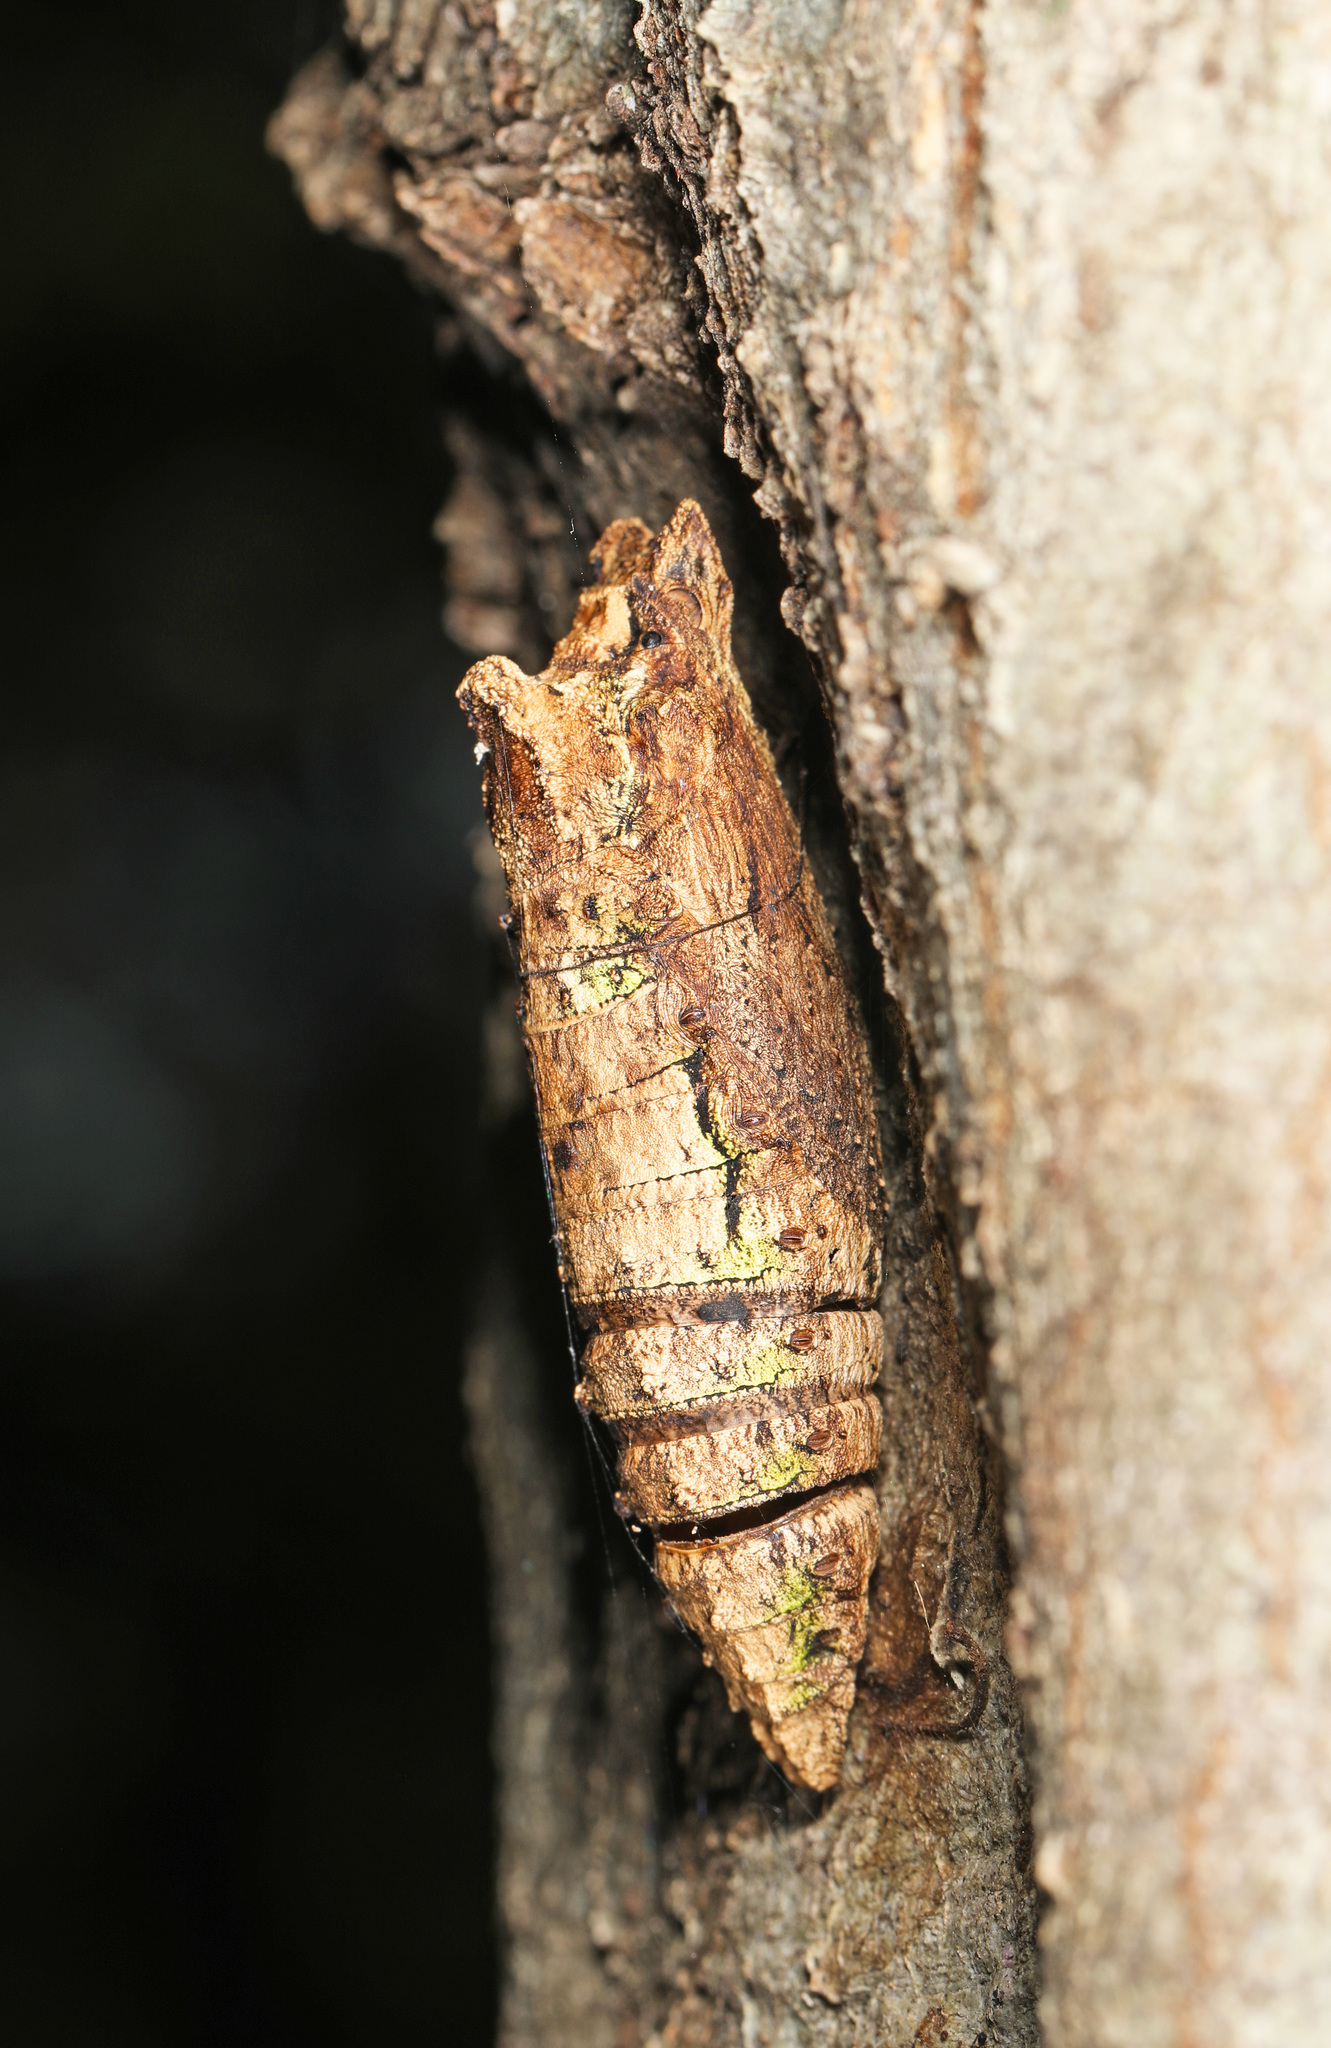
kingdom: Animalia
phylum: Arthropoda
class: Insecta
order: Lepidoptera
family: Papilionidae
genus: Papilio
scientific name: Papilio glaucus
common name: Tiger swallowtail
